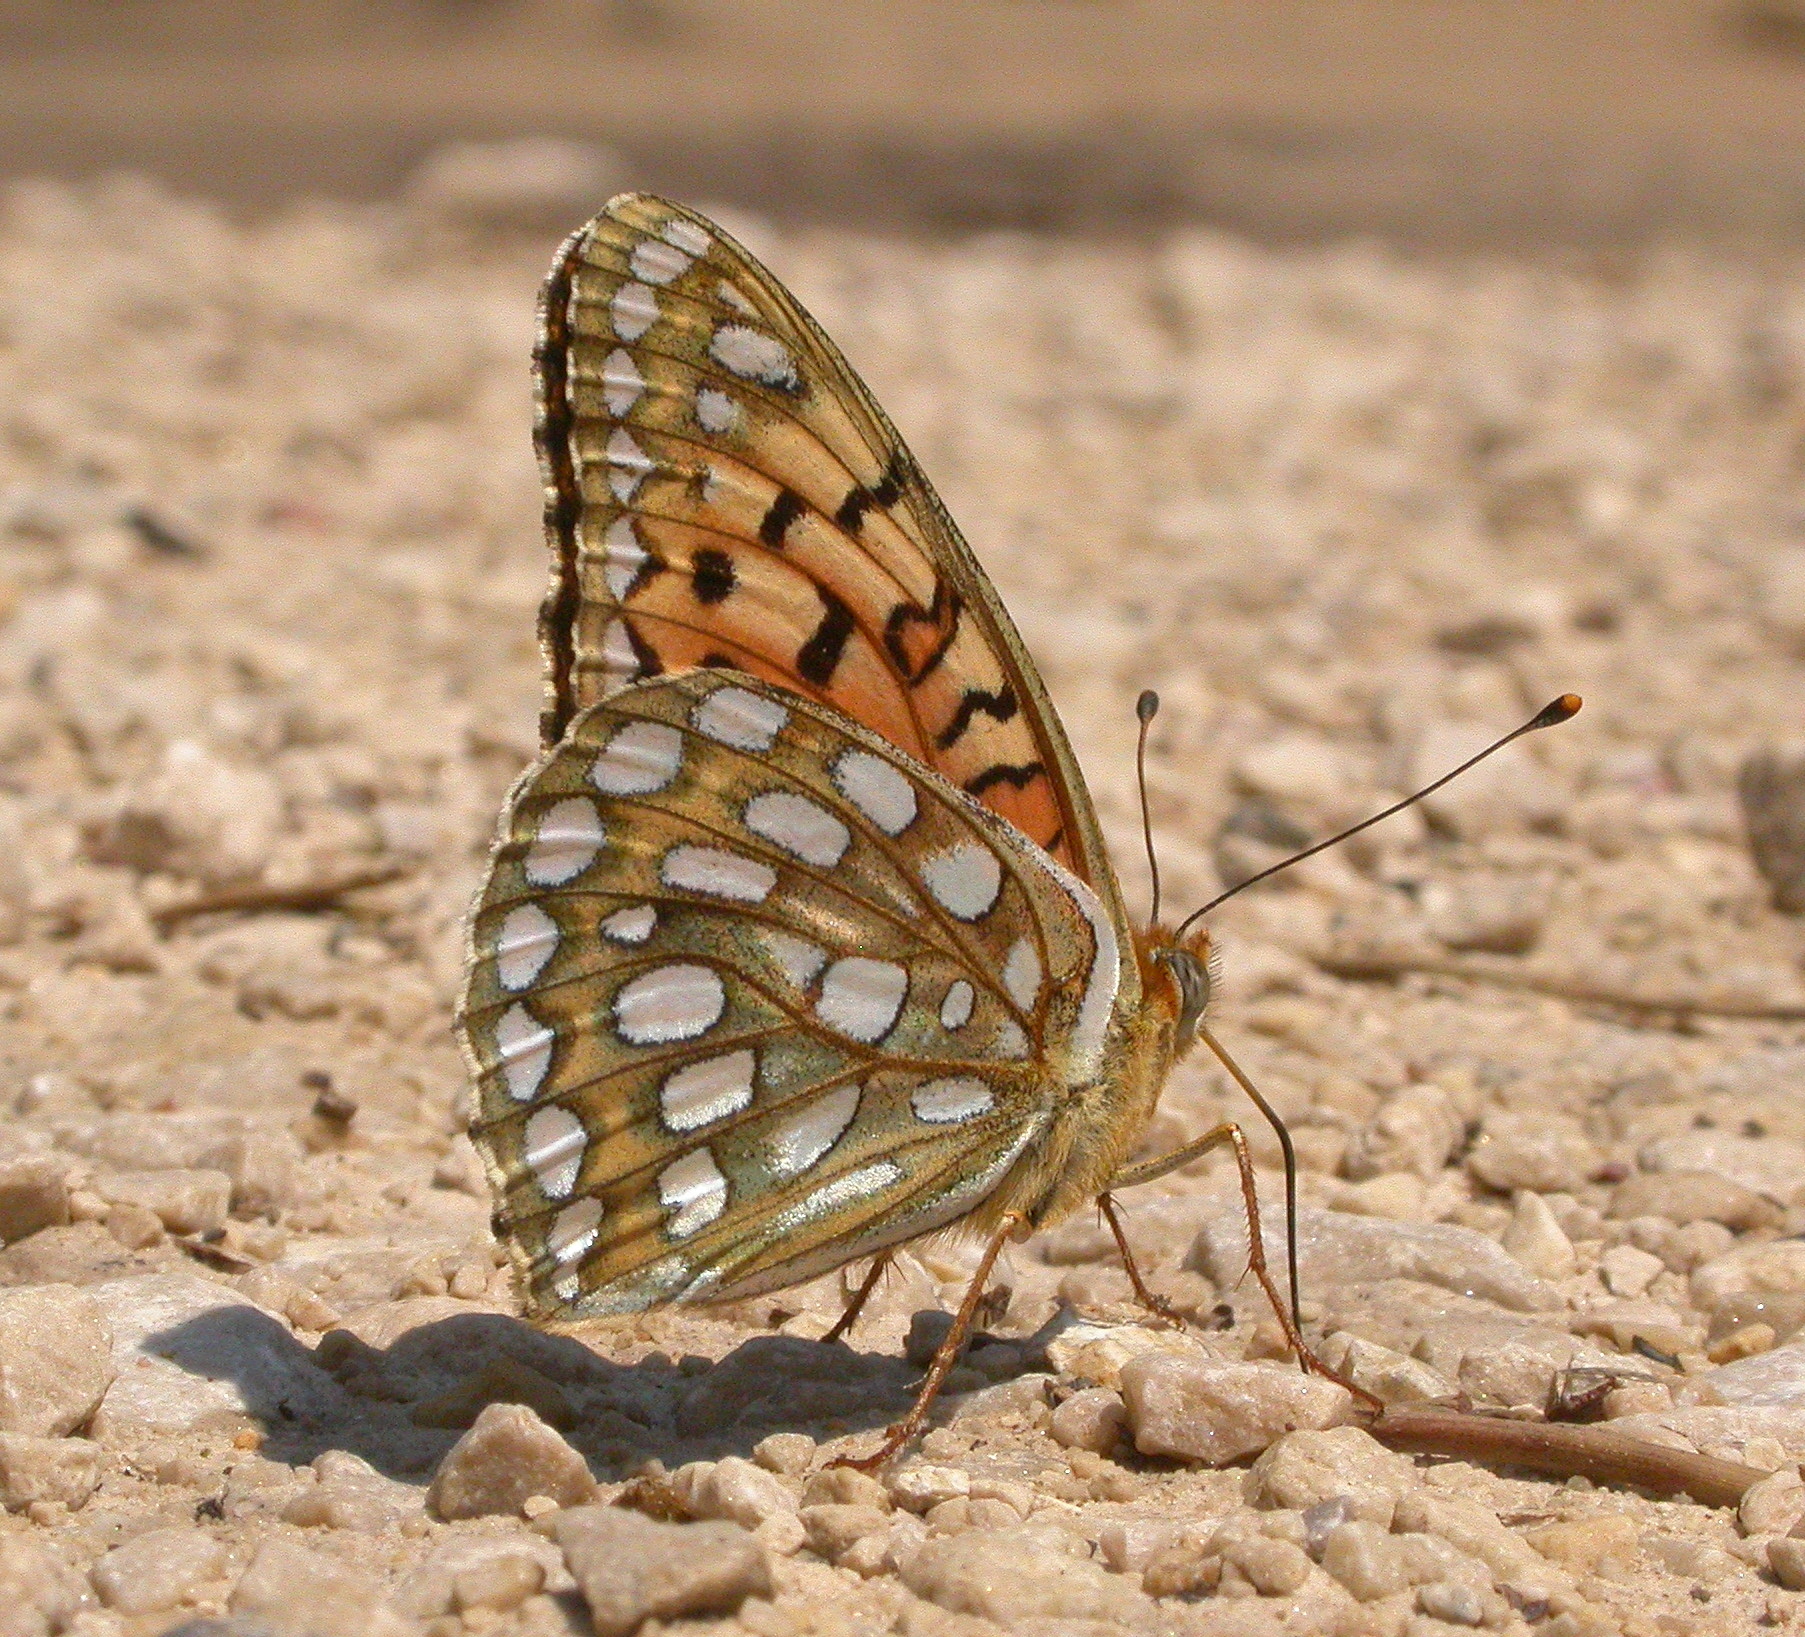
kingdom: Animalia
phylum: Arthropoda
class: Insecta
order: Lepidoptera
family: Nymphalidae
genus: Speyeria
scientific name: Speyeria edwardsii
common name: Edwards' fritillary
